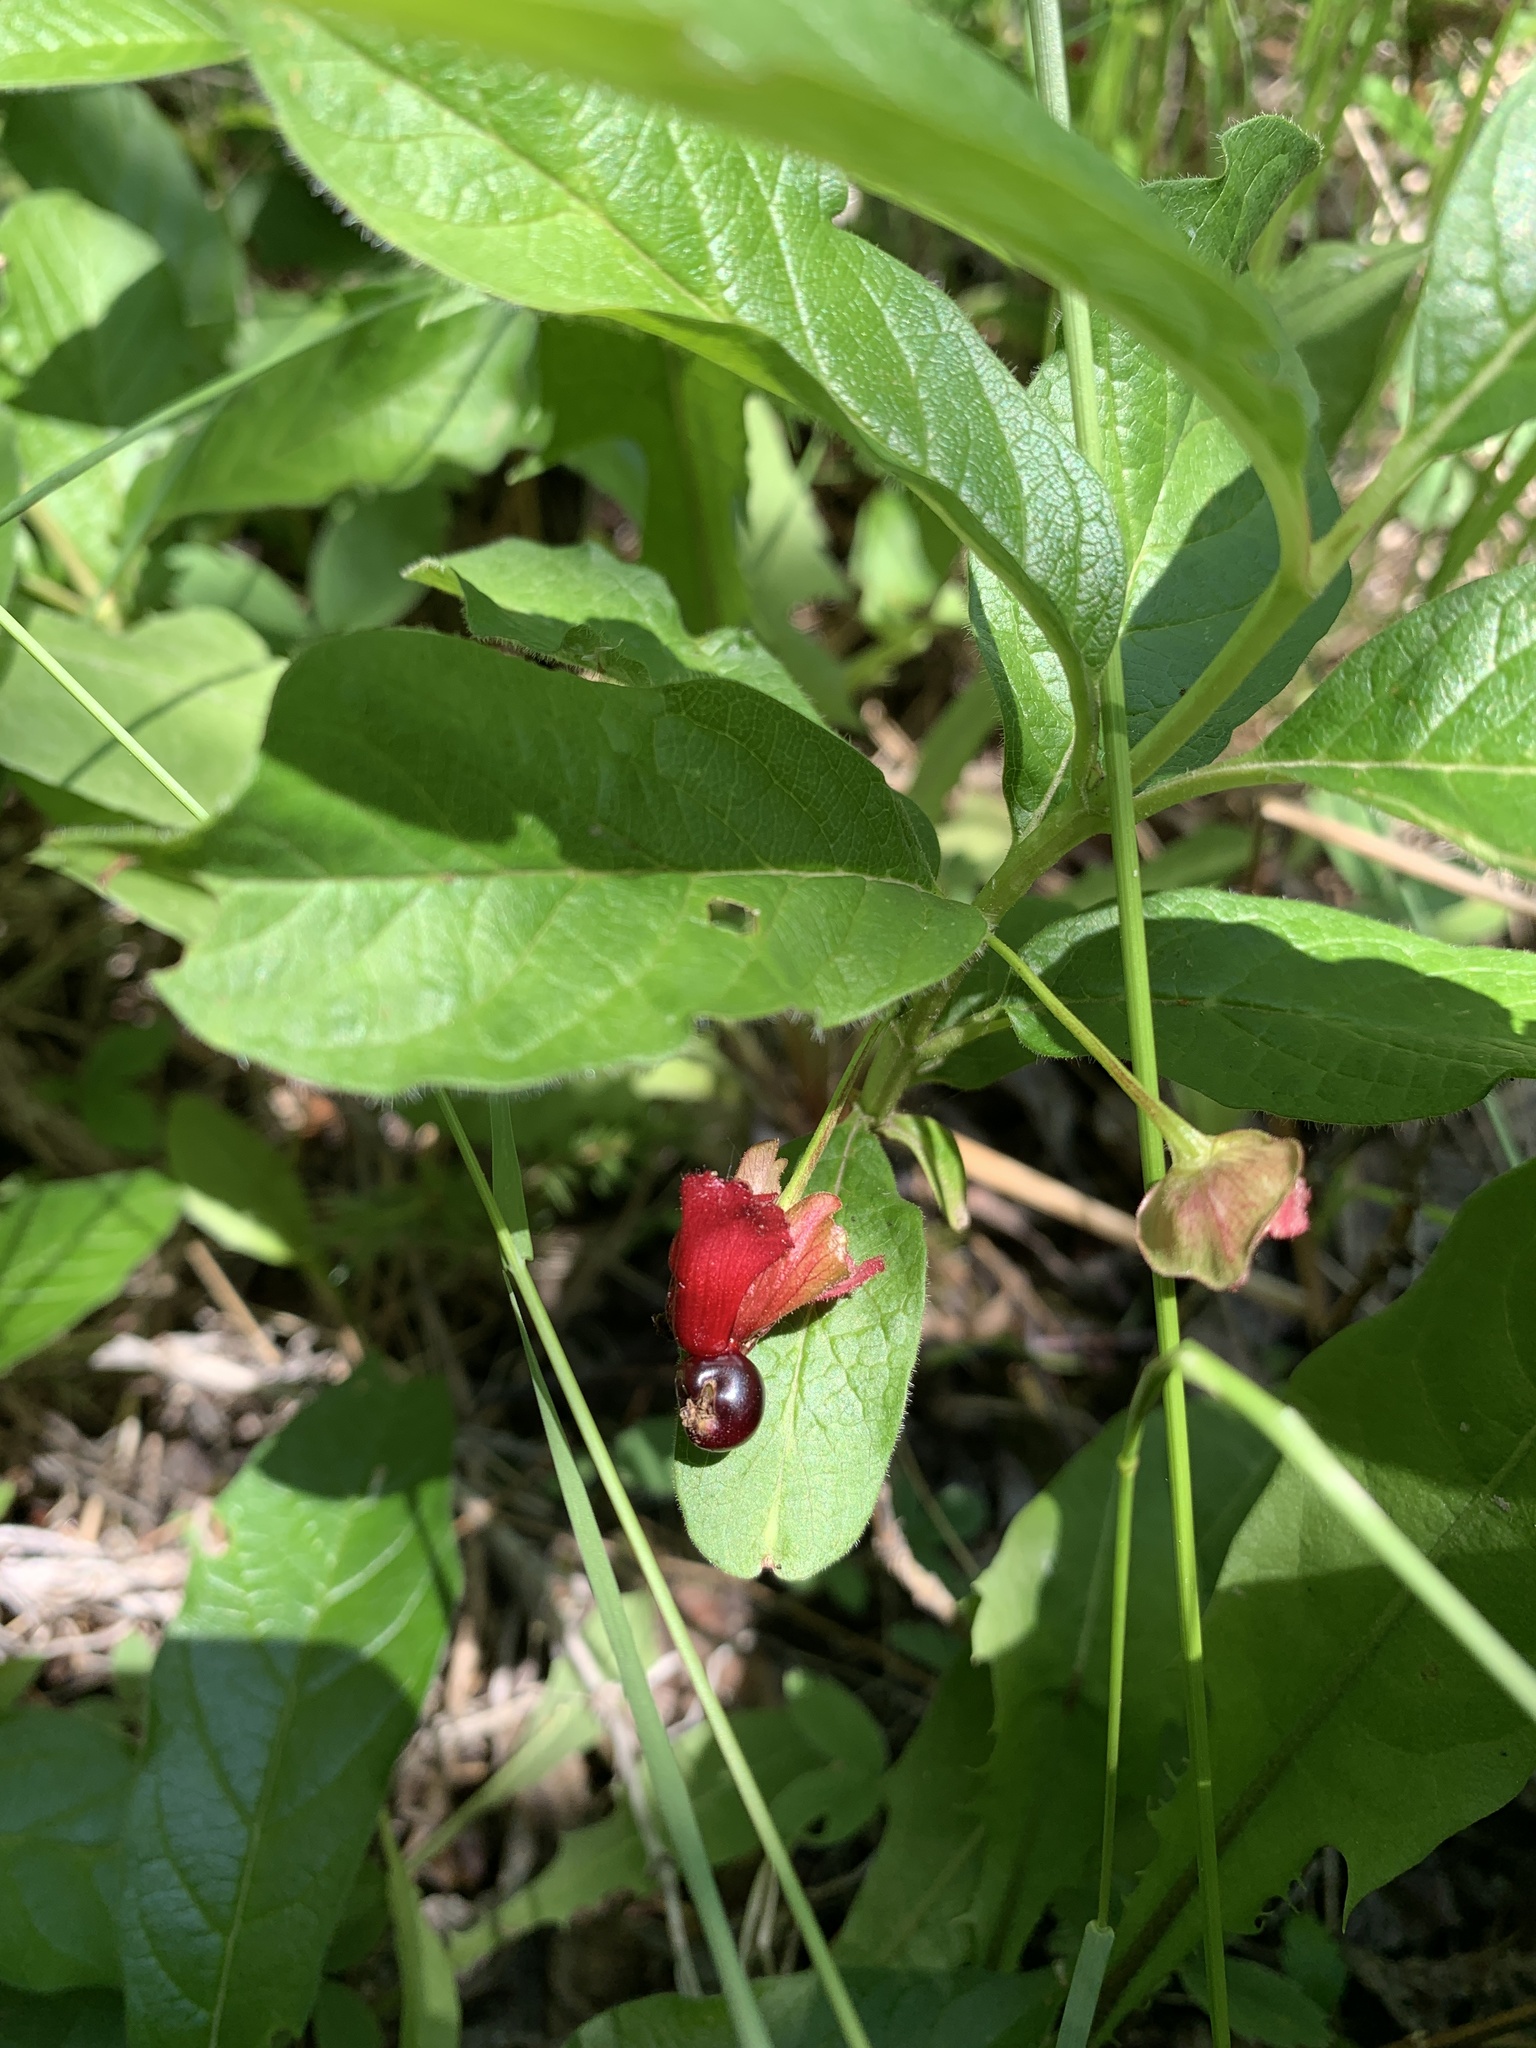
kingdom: Plantae
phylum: Tracheophyta
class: Magnoliopsida
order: Dipsacales
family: Caprifoliaceae
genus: Lonicera
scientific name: Lonicera involucrata
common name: Californian honeysuckle
